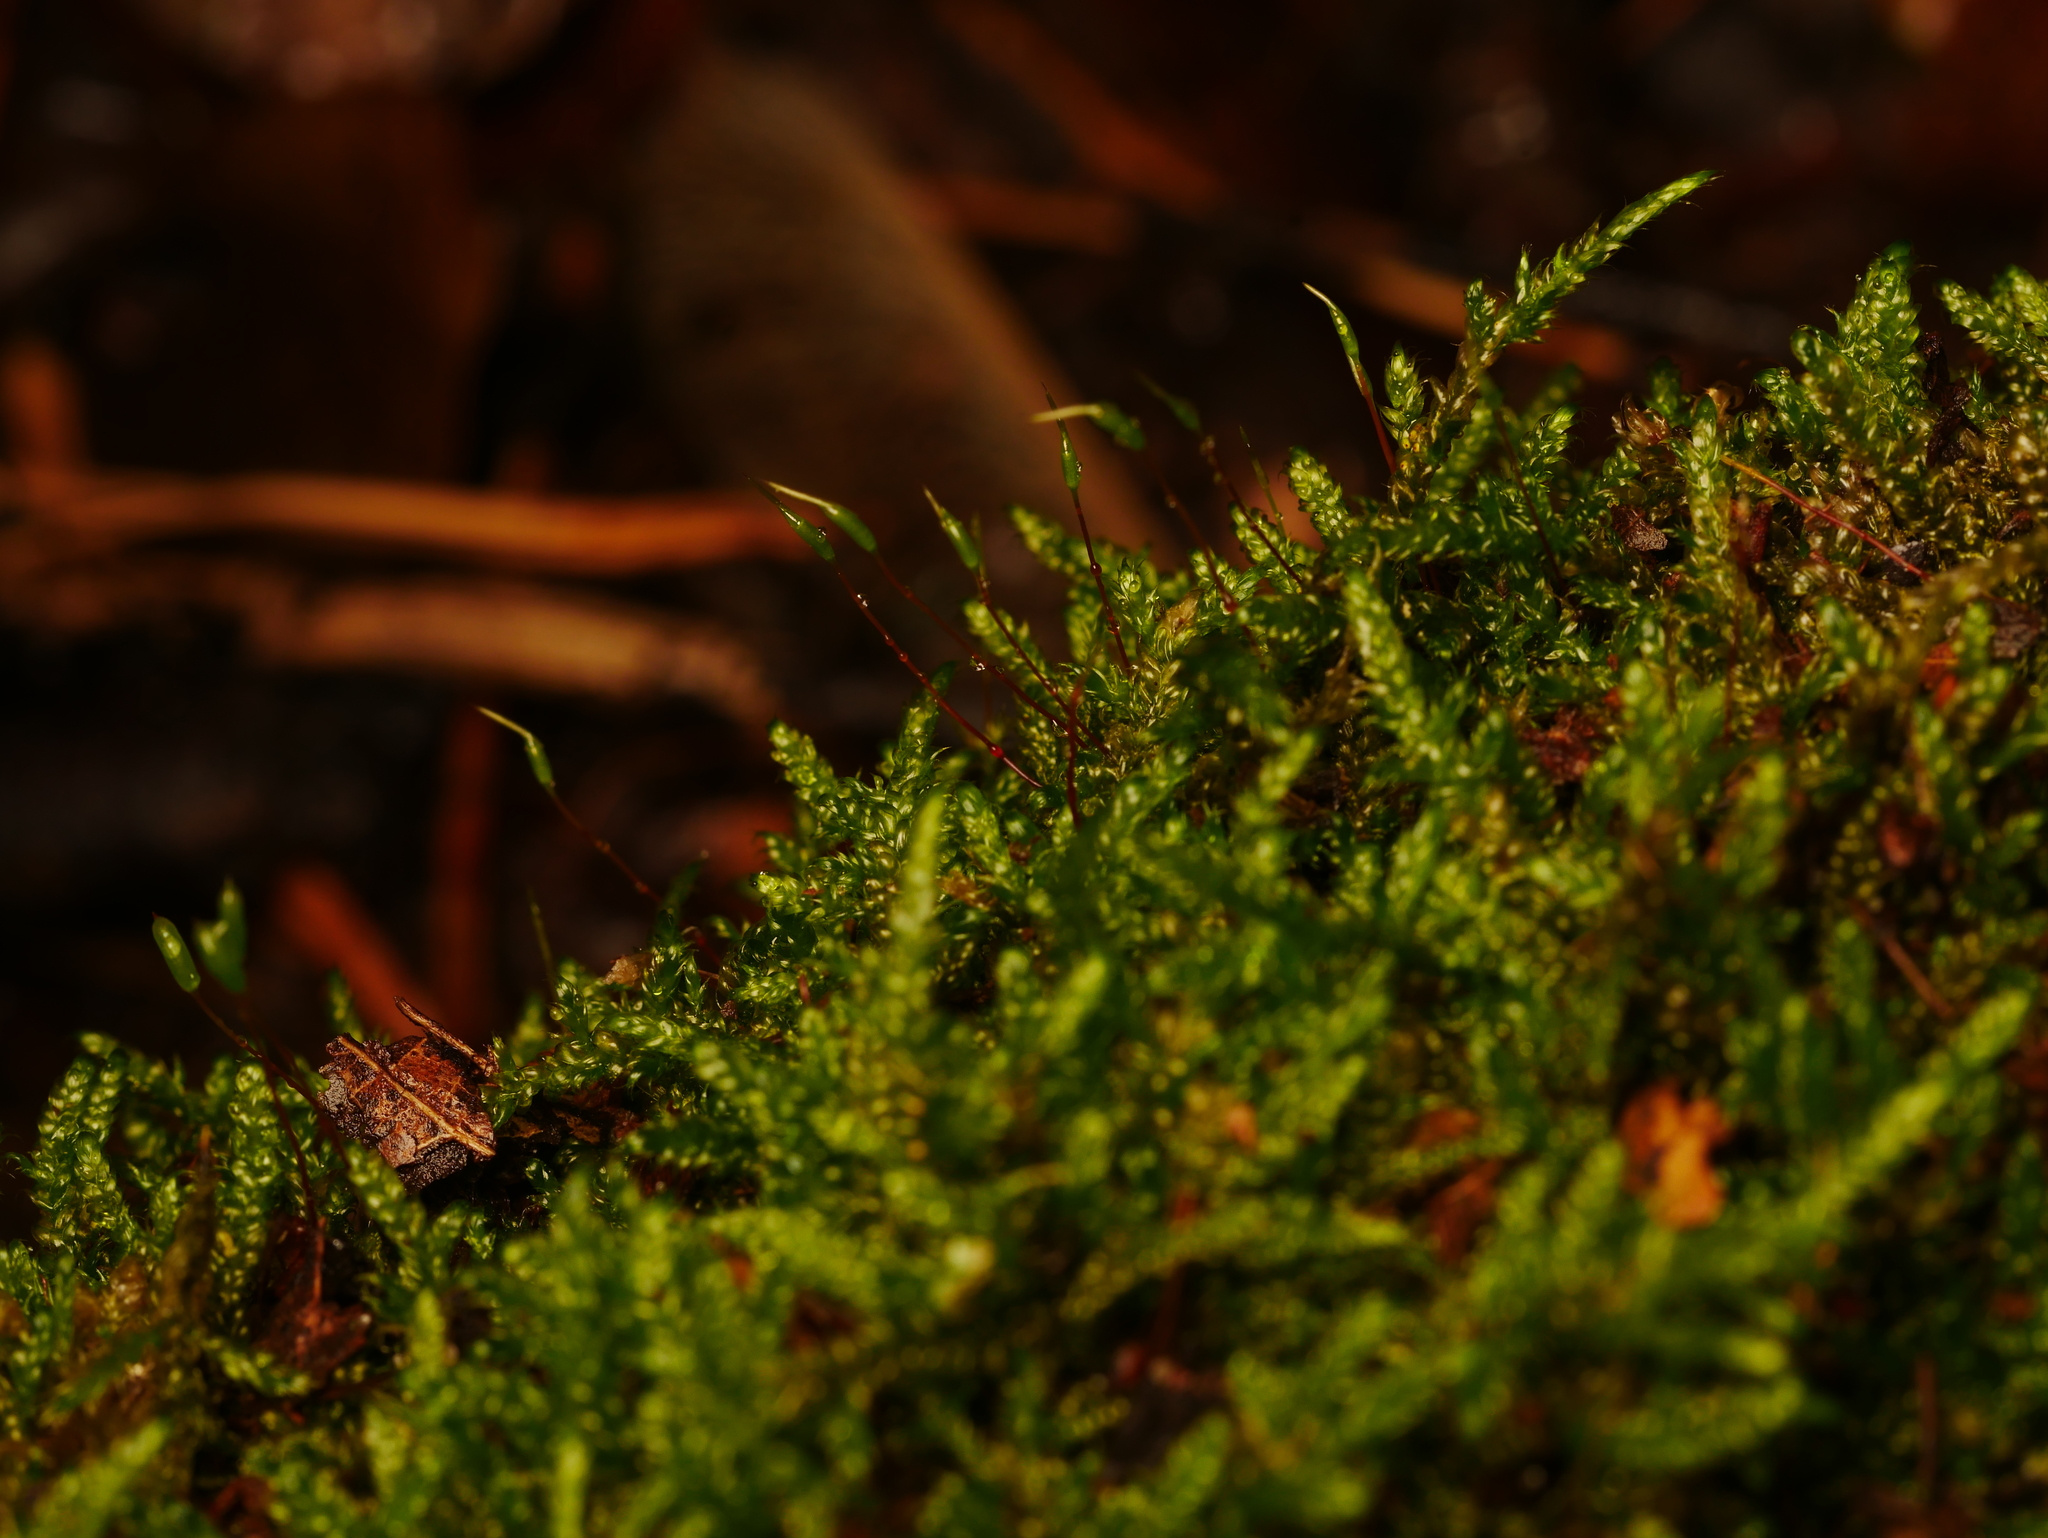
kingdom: Plantae
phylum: Bryophyta
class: Bryopsida
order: Hypnales
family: Hypnaceae
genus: Hypnum
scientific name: Hypnum cupressiforme
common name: Cypress-leaved plait-moss
